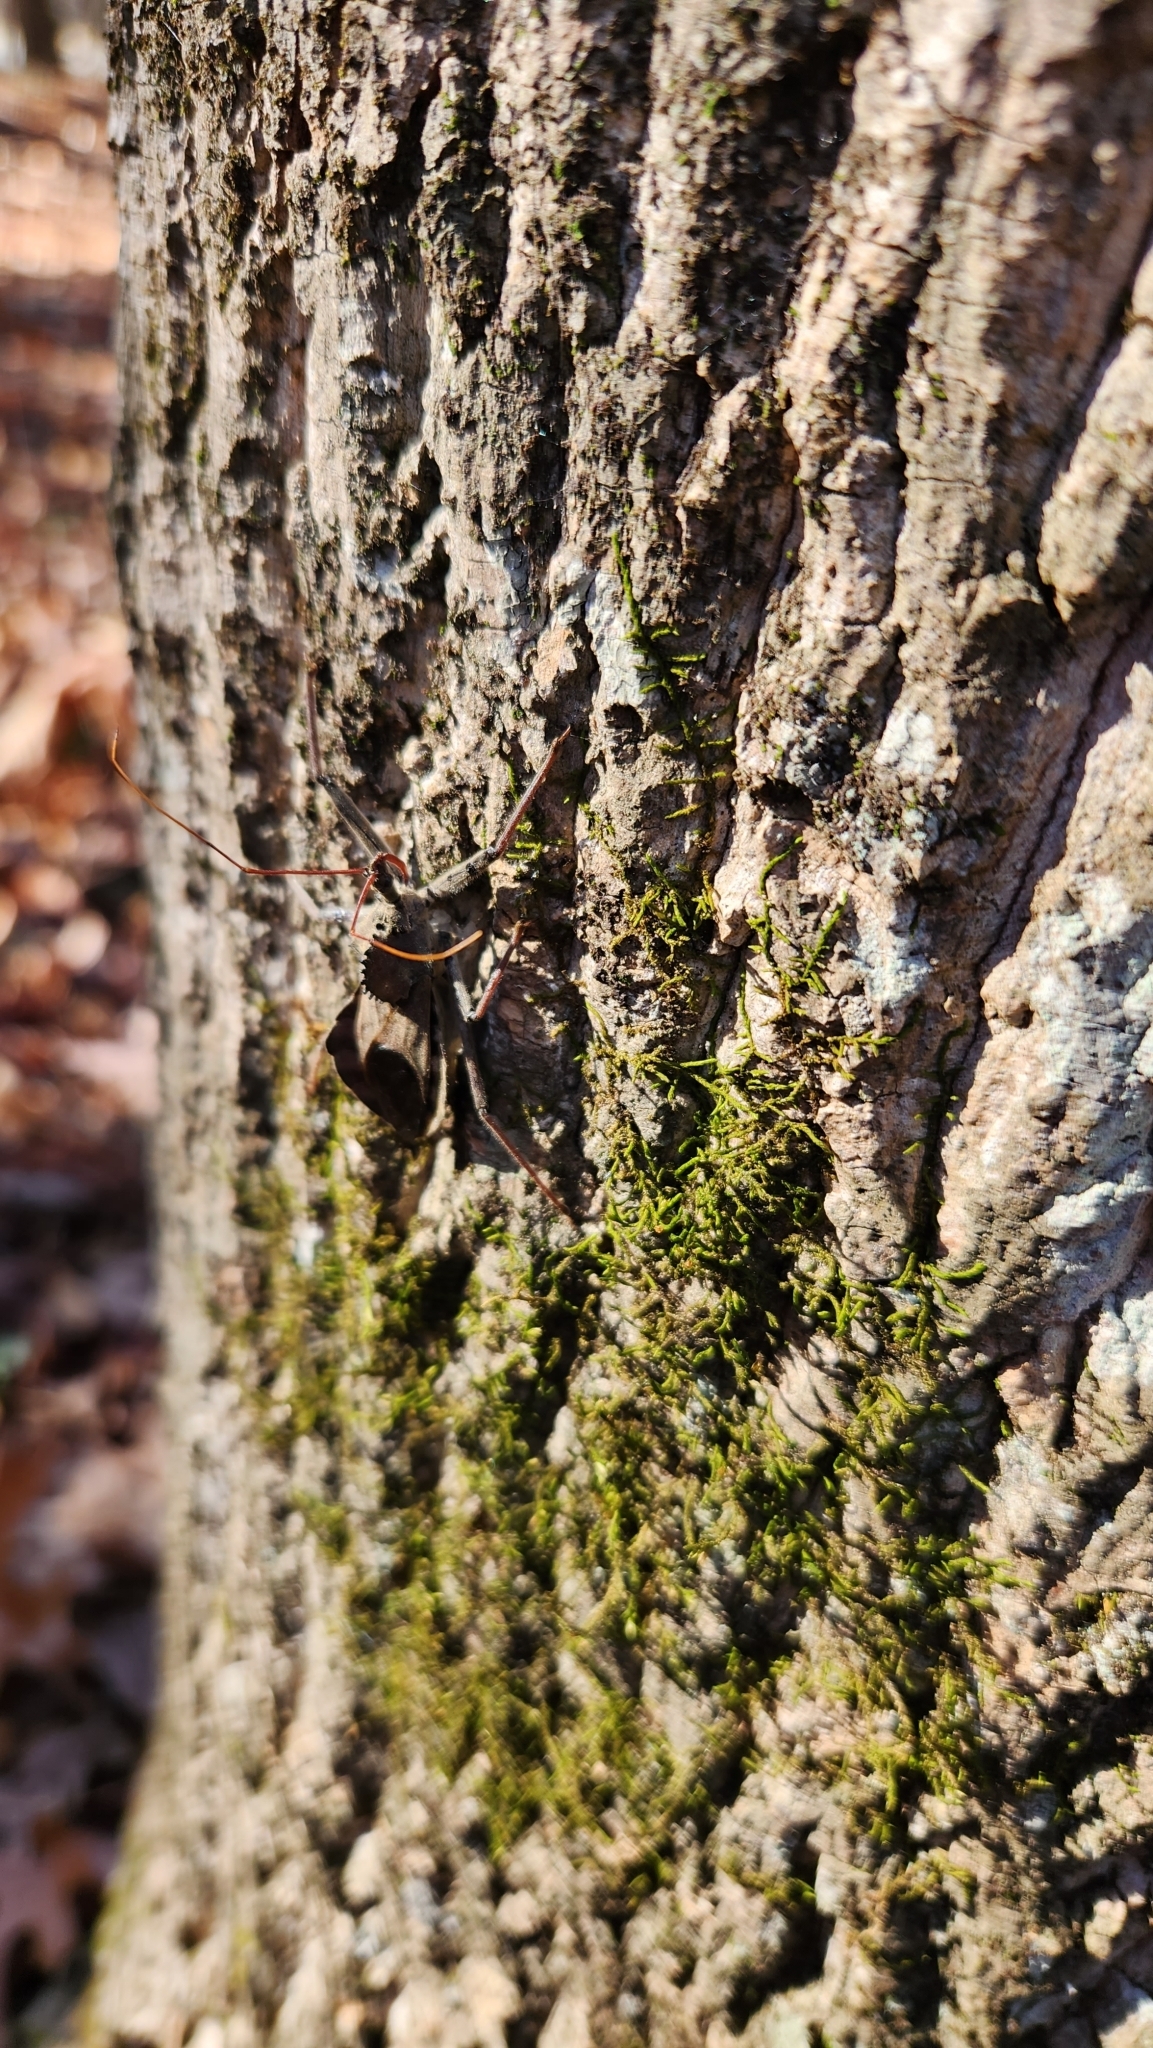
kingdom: Animalia
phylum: Arthropoda
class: Insecta
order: Hemiptera
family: Reduviidae
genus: Arilus
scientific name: Arilus cristatus
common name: North american wheel bug
